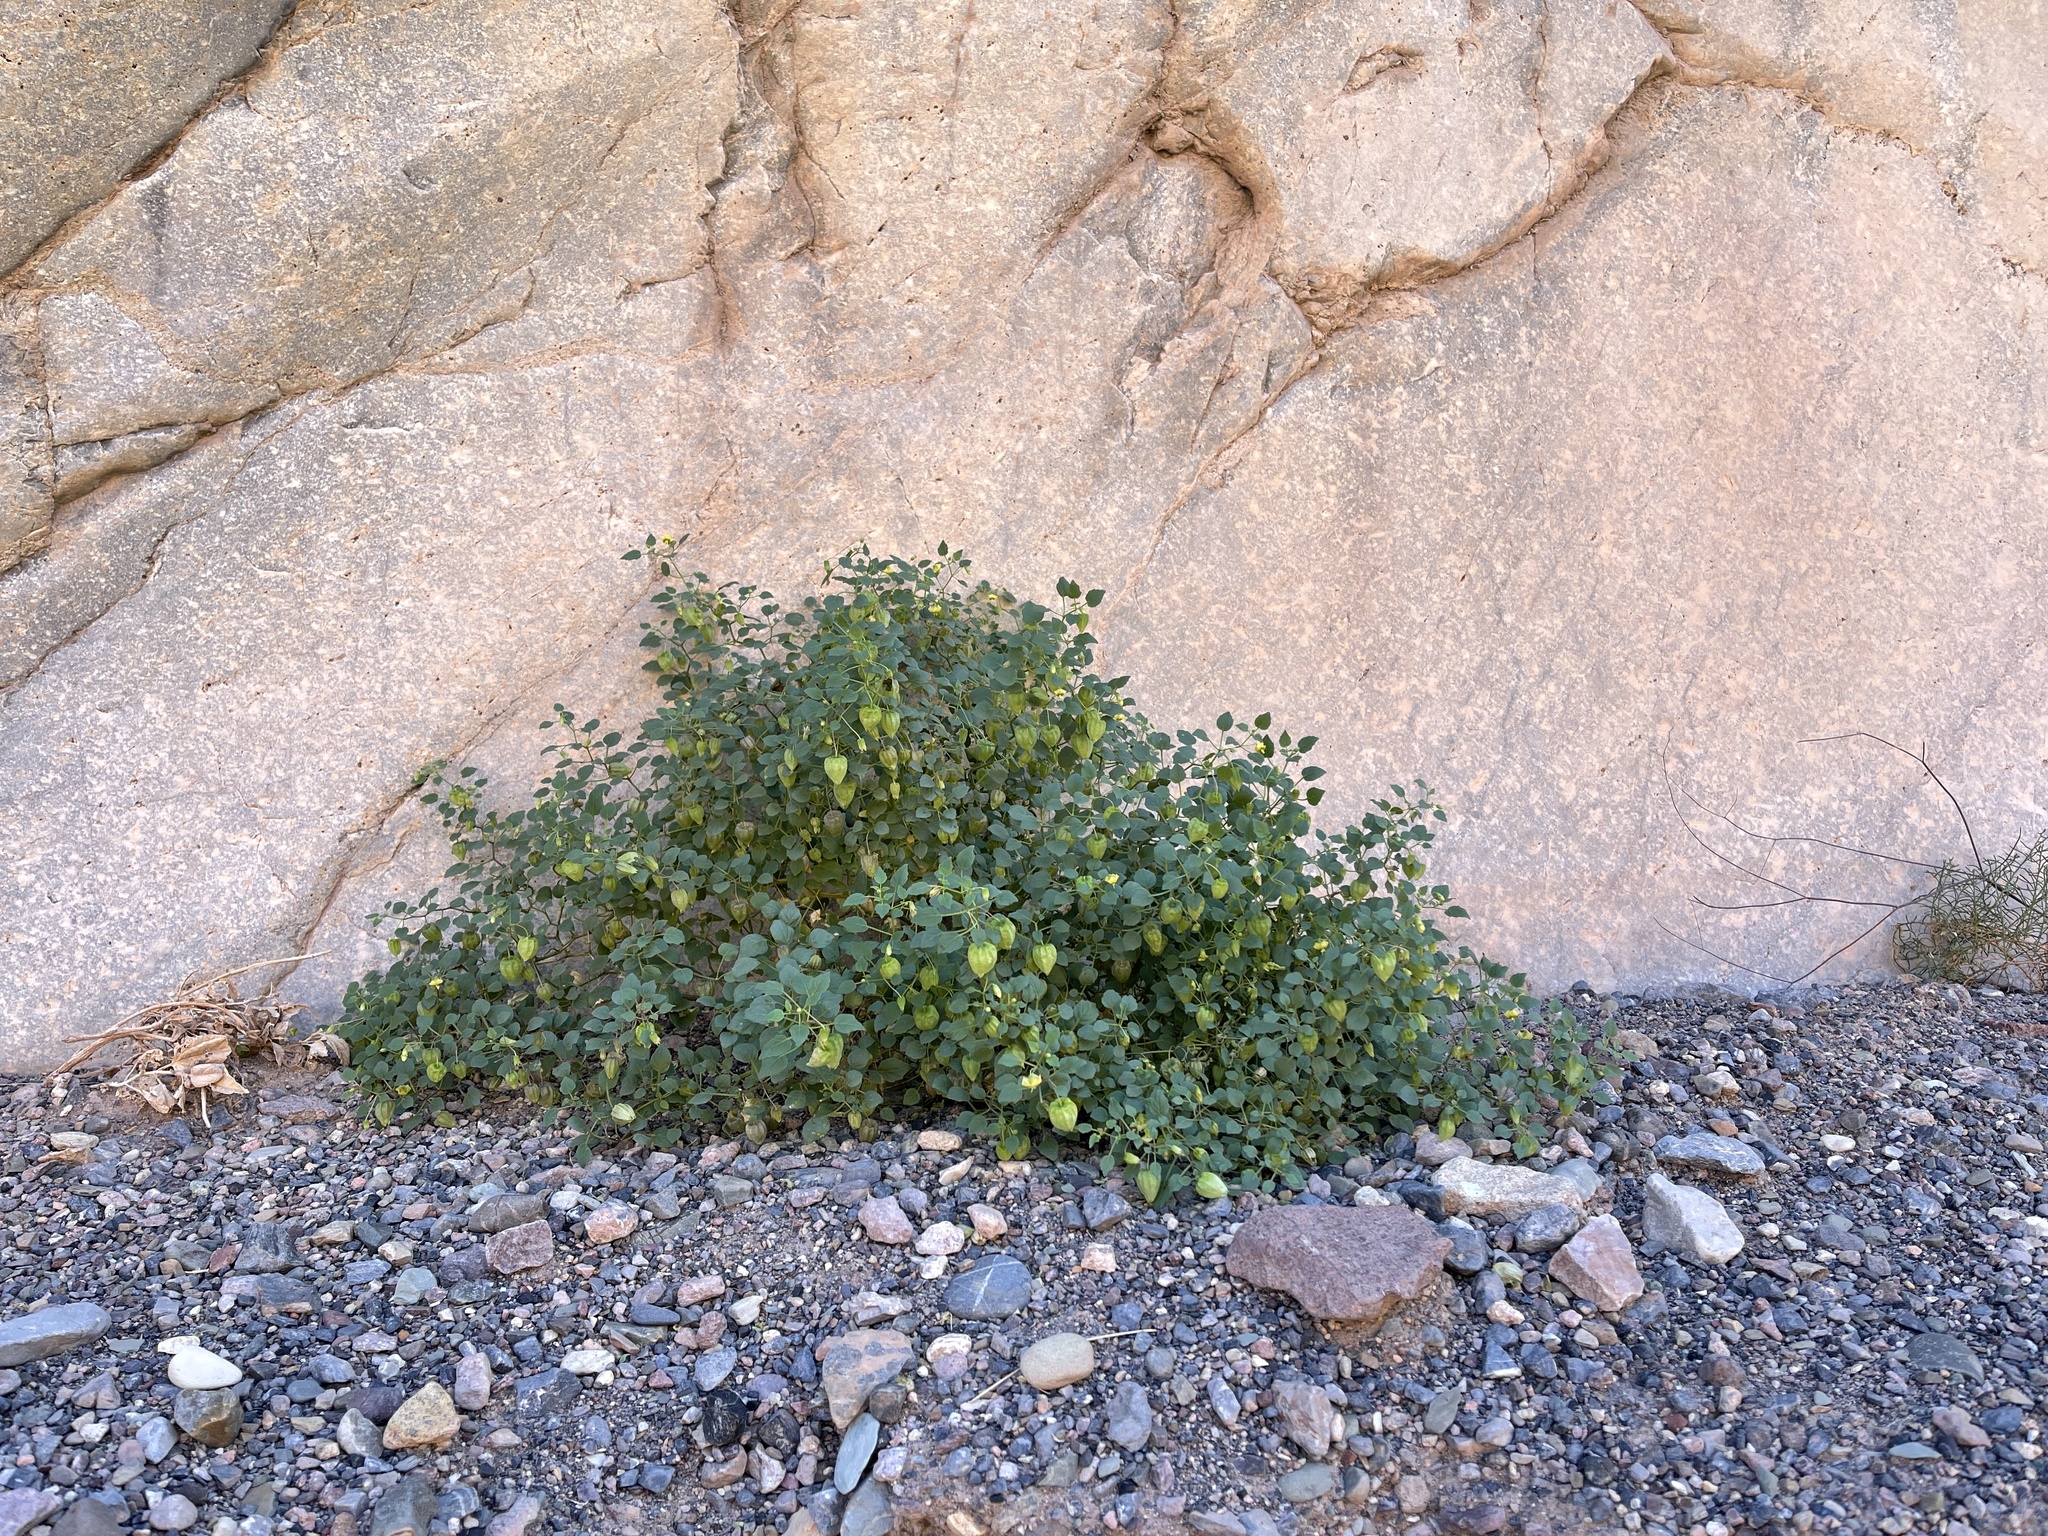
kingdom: Plantae
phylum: Tracheophyta
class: Magnoliopsida
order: Solanales
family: Solanaceae
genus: Physalis
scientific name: Physalis crassifolia
